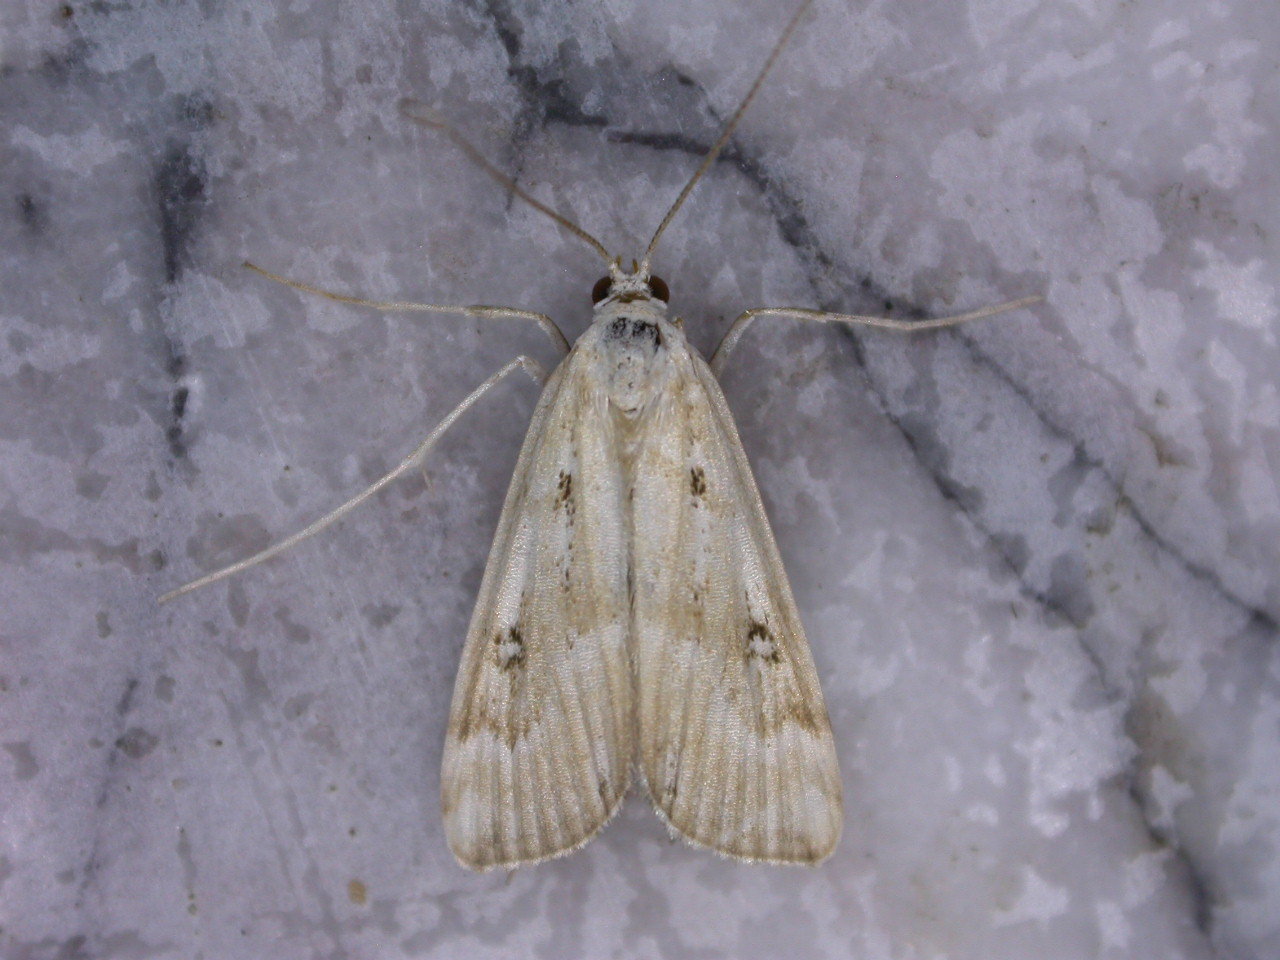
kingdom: Animalia
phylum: Arthropoda
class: Insecta
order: Lepidoptera
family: Crambidae
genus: Parapoynx
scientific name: Parapoynx stratiotata
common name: Ringed china-mark
